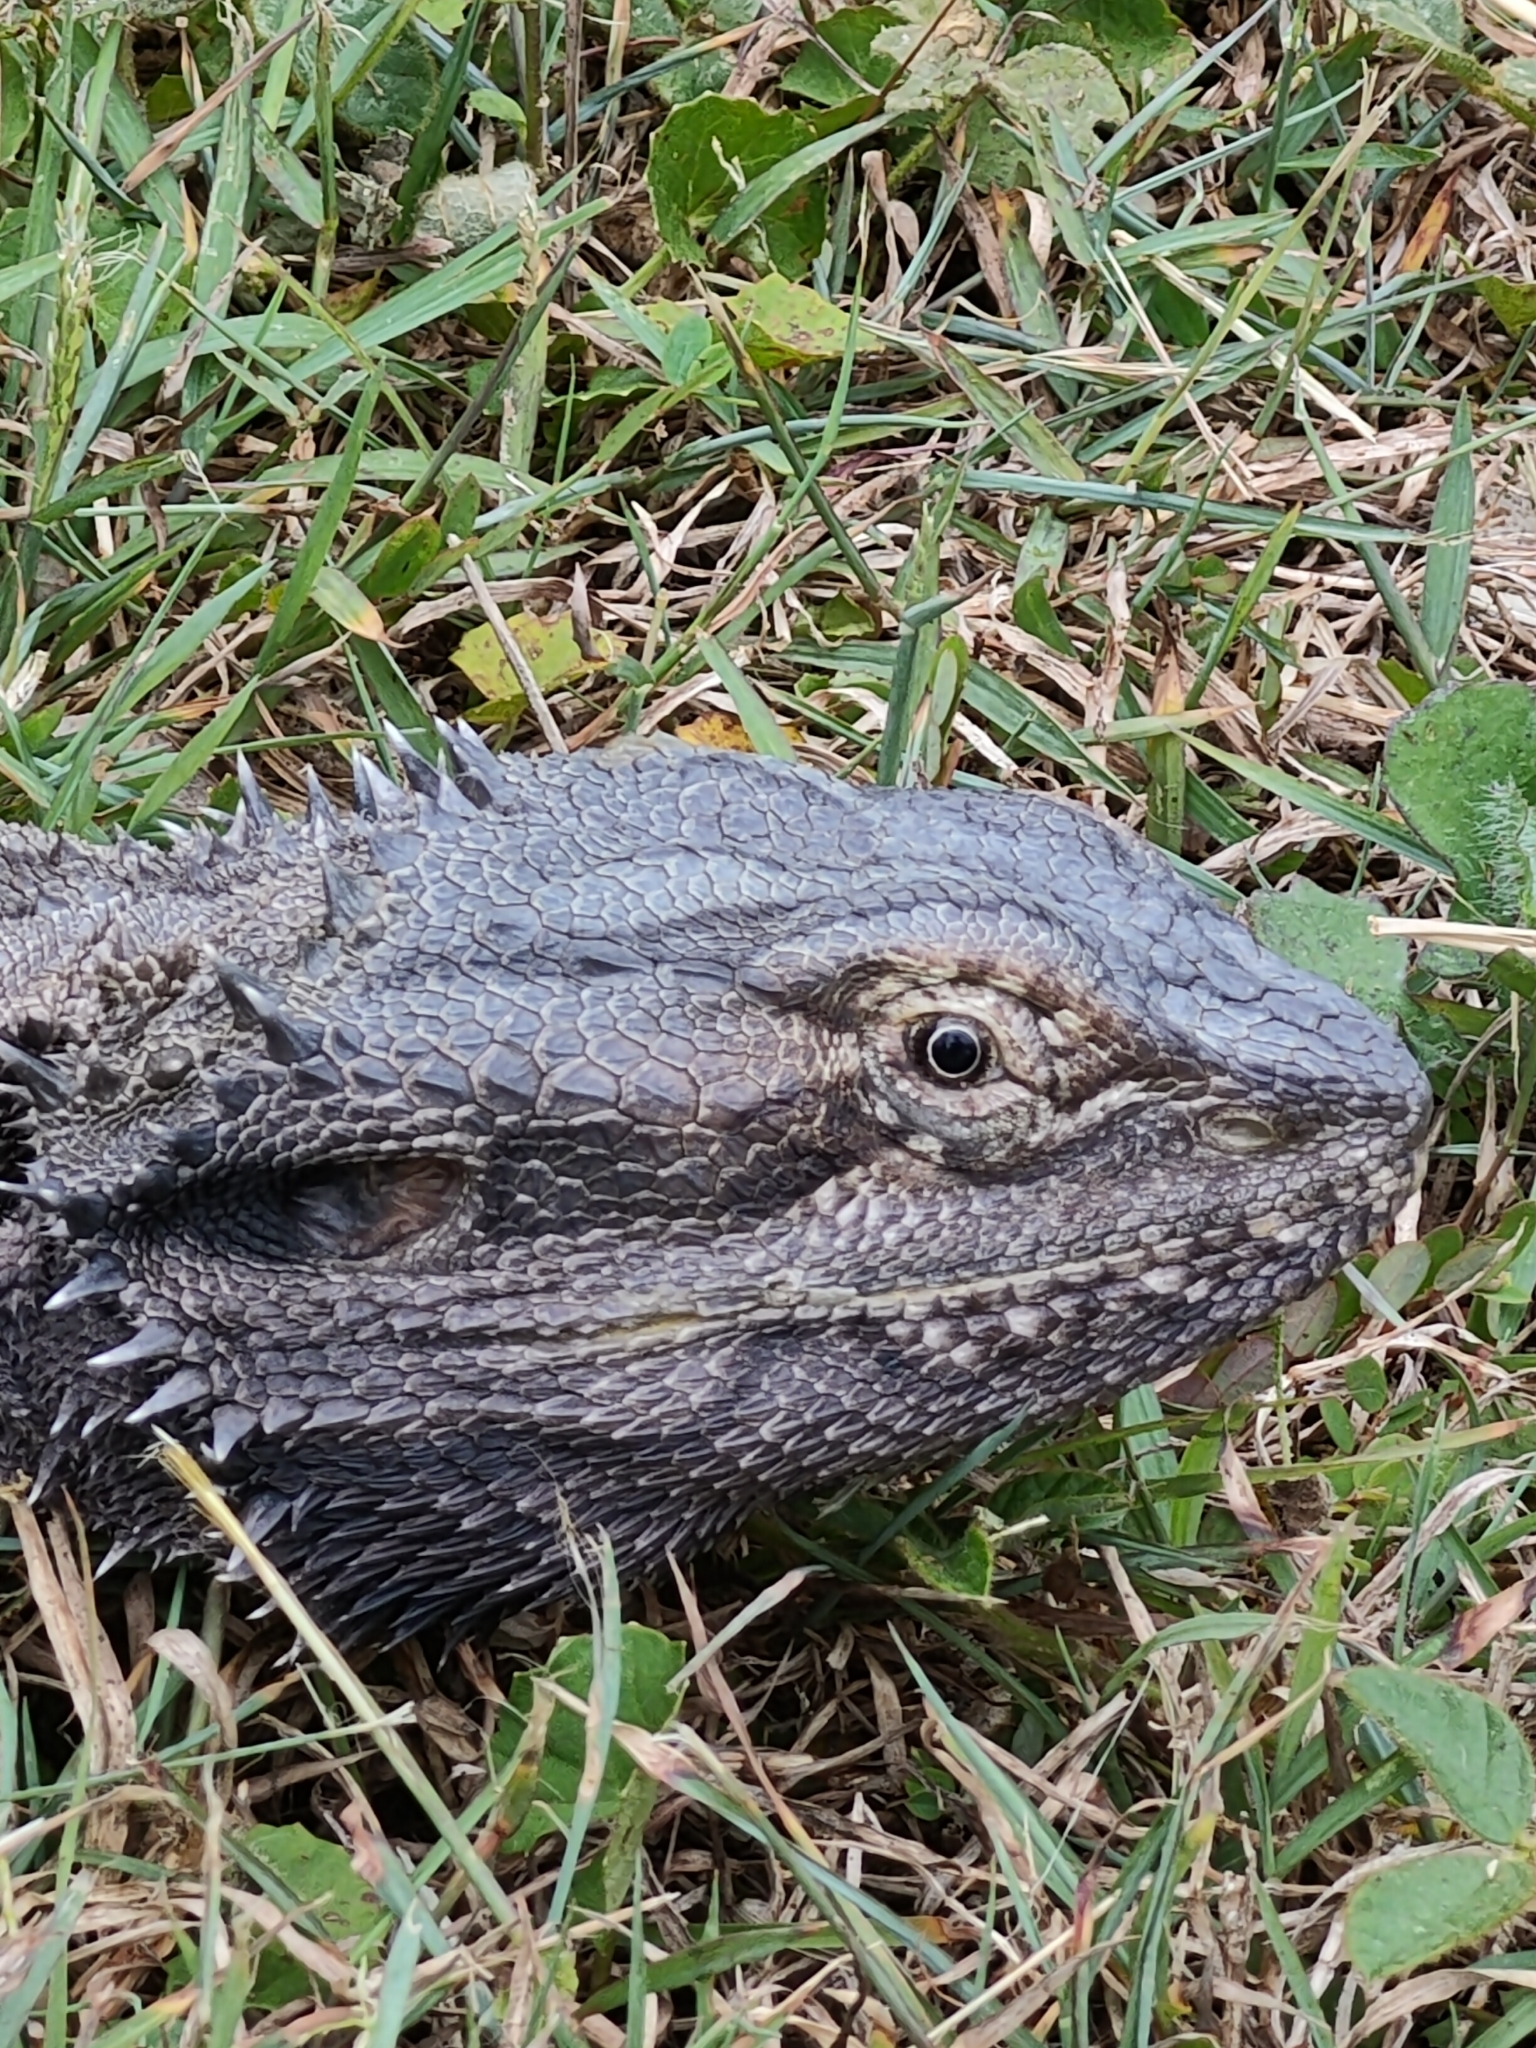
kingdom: Animalia
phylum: Chordata
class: Squamata
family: Agamidae
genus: Pogona
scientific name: Pogona barbata
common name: Bearded dragon
